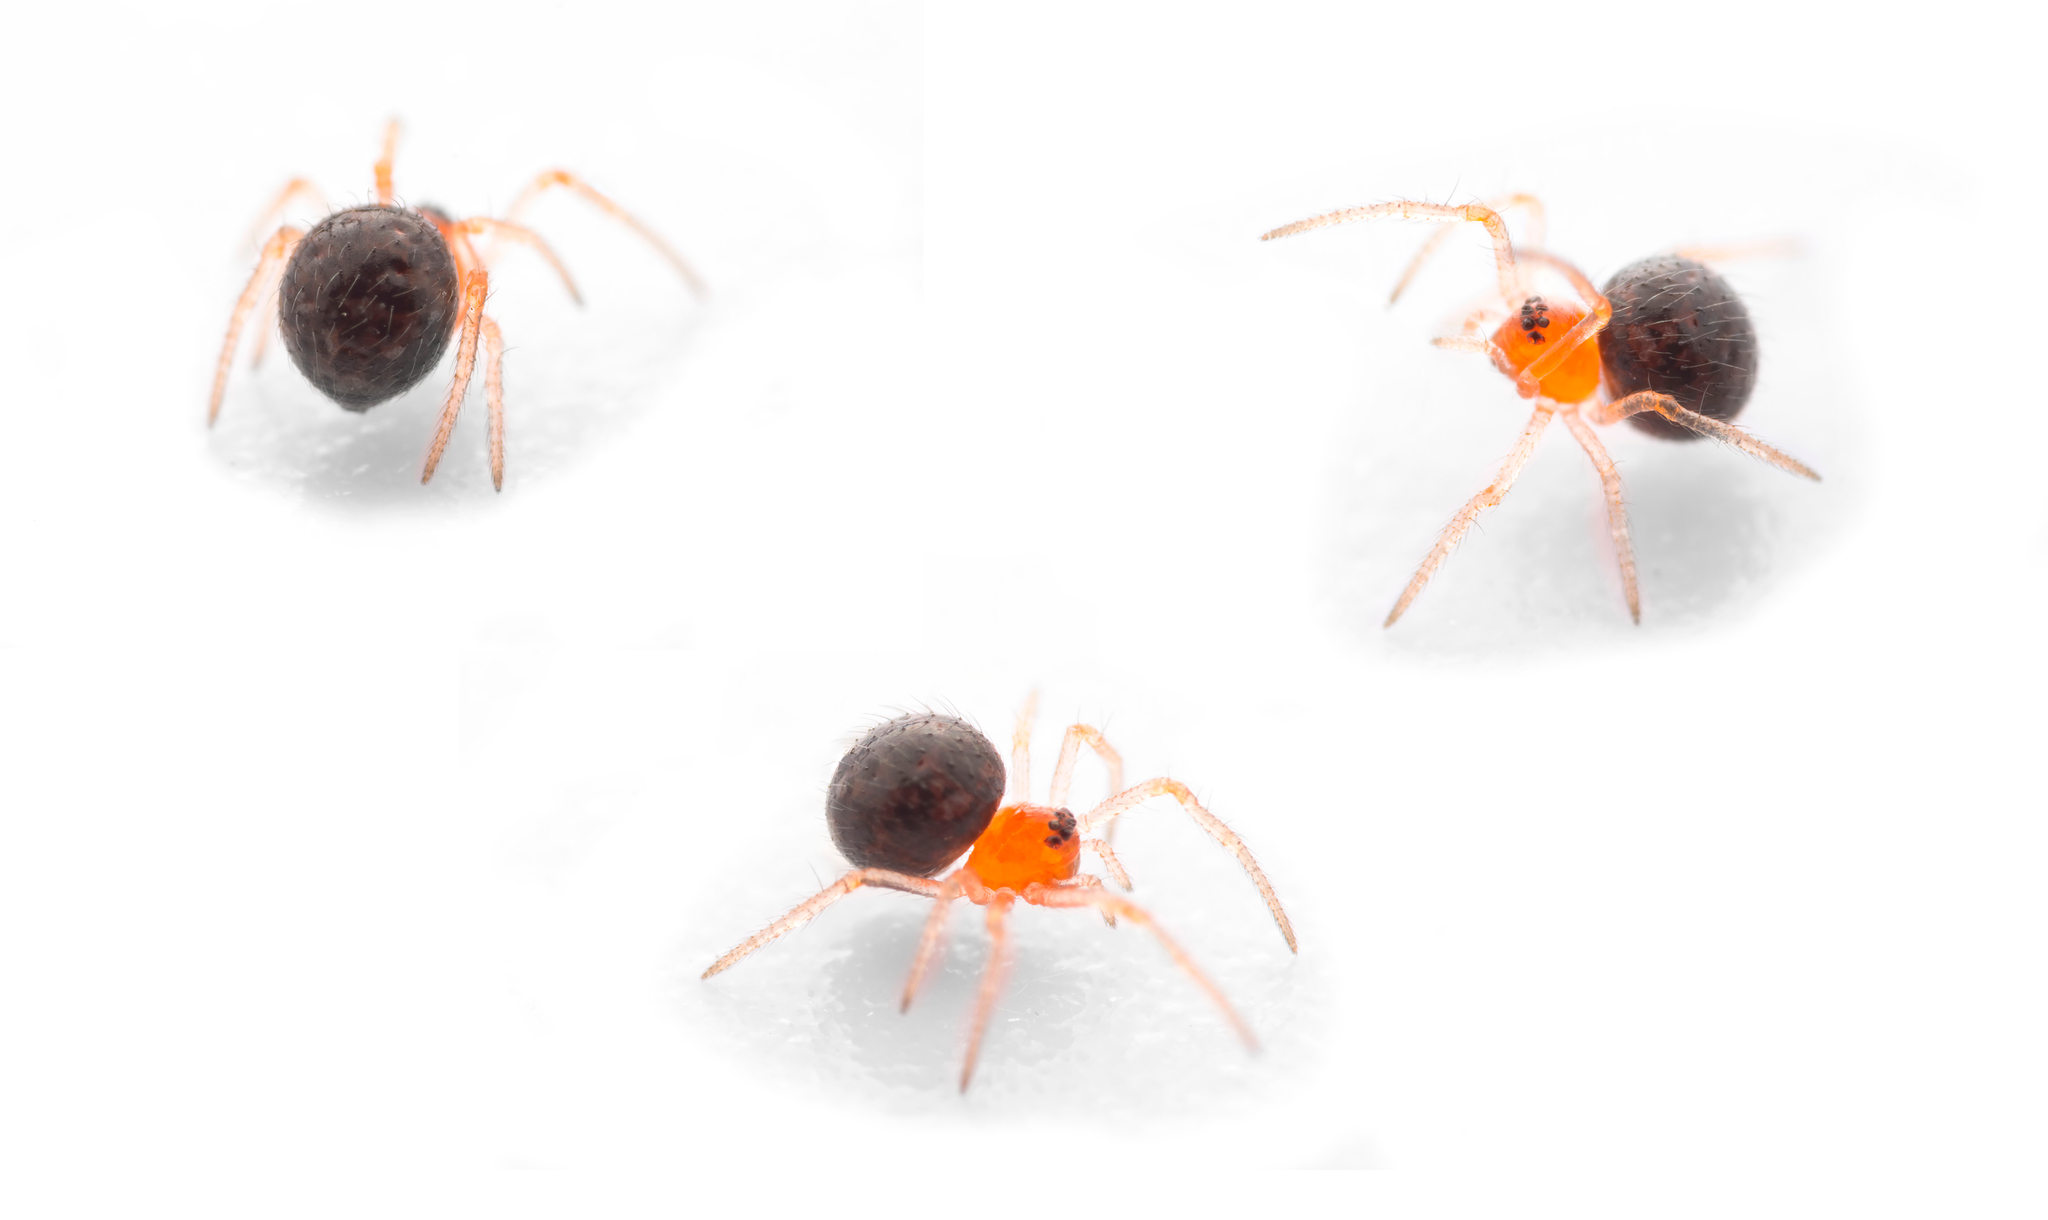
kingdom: Animalia
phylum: Arthropoda
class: Arachnida
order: Araneae
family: Theridiidae
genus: Ruborridion
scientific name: Ruborridion musivum
